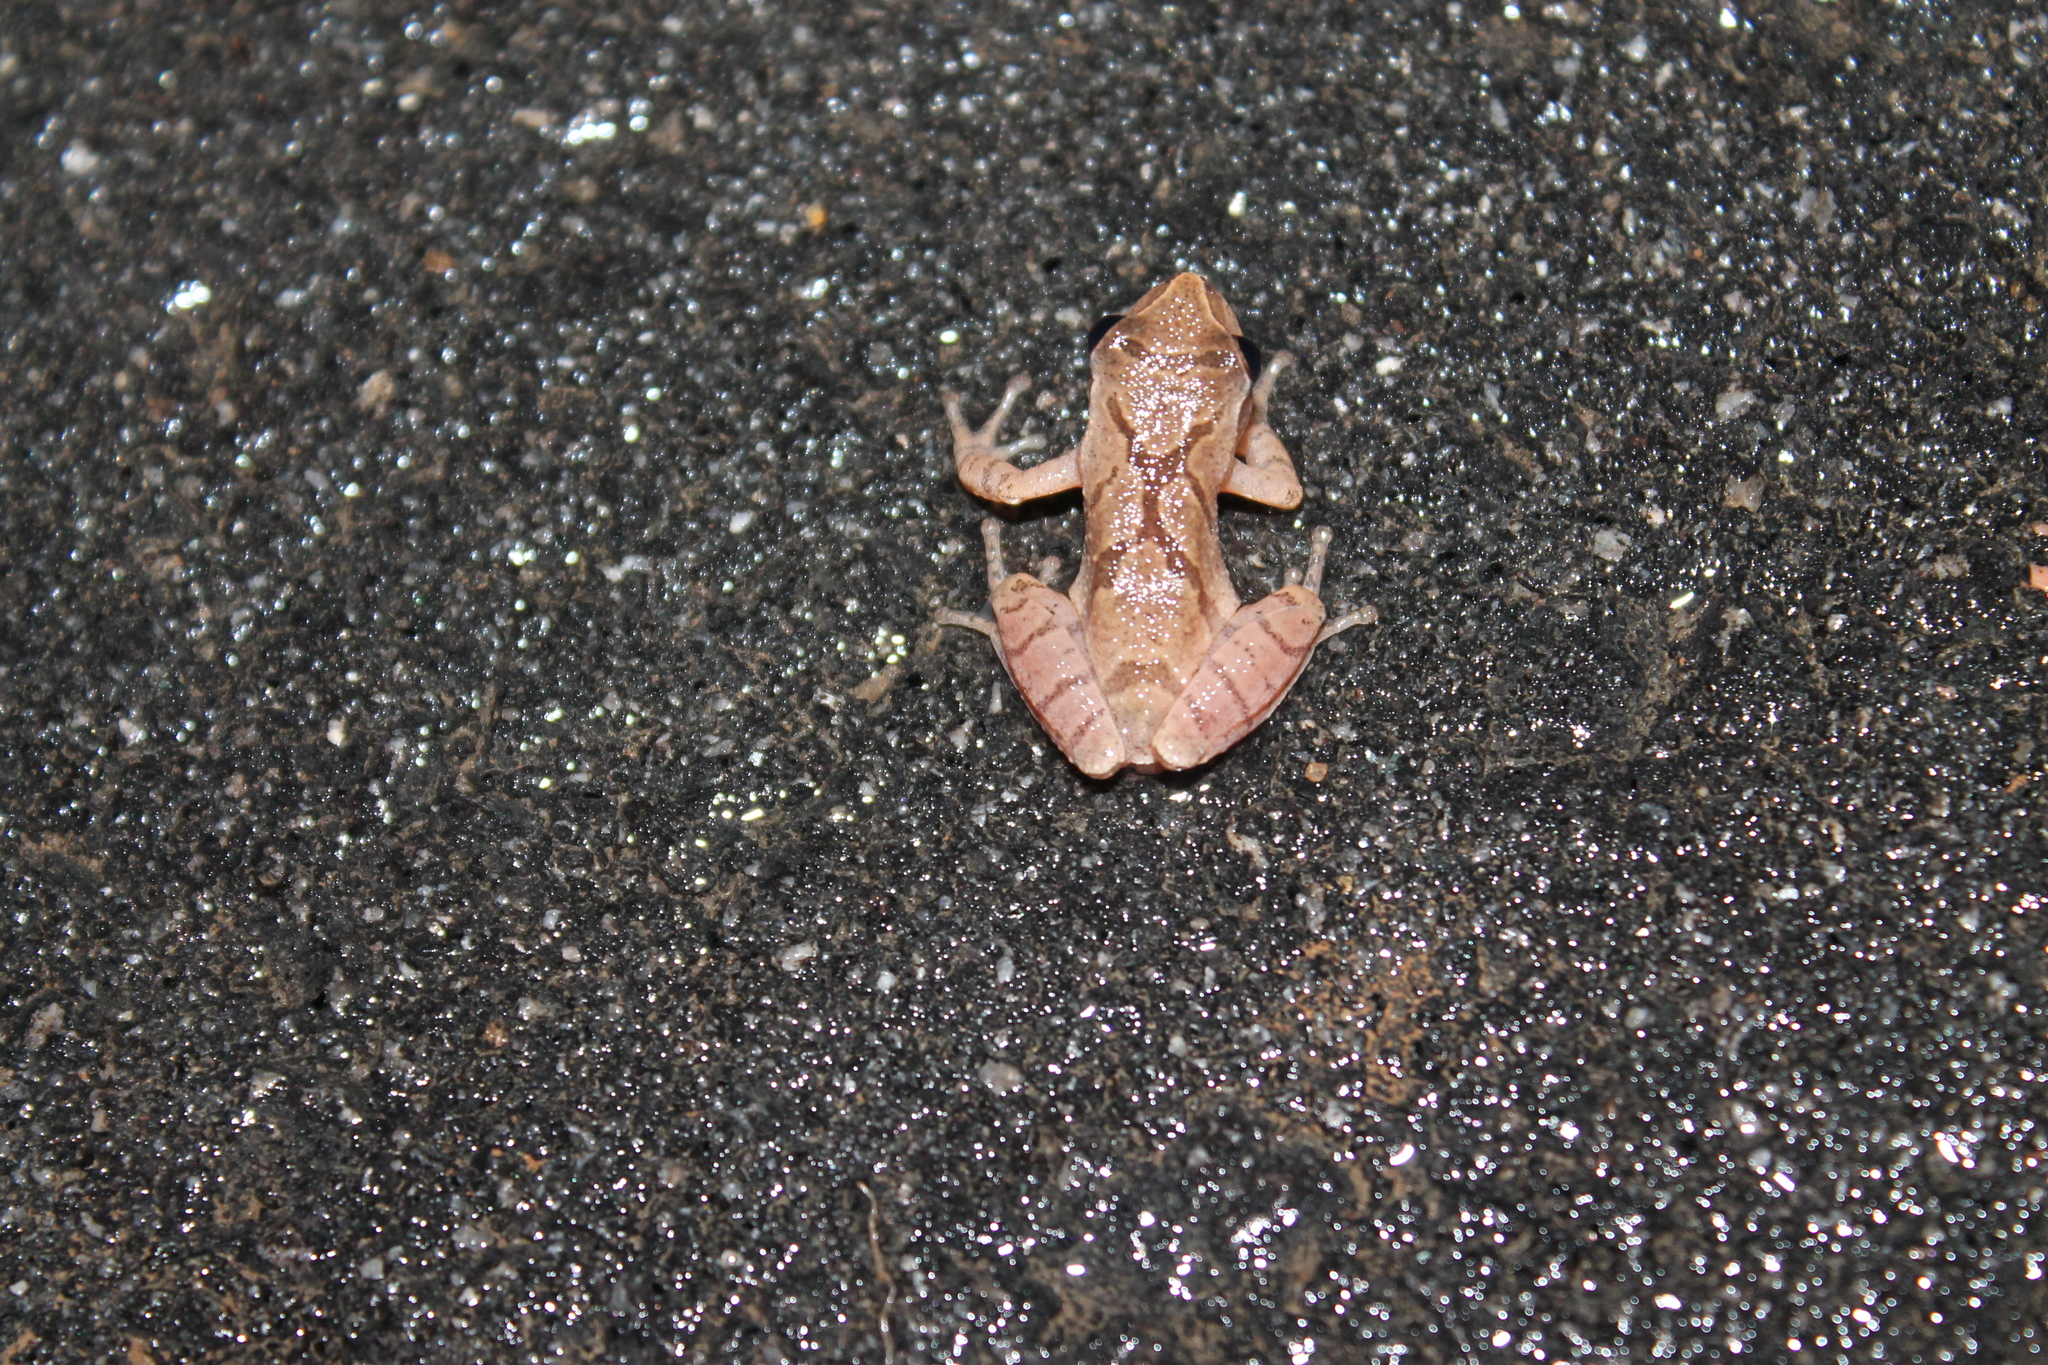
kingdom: Animalia
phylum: Chordata
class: Amphibia
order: Anura
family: Hylidae
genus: Pseudacris
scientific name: Pseudacris crucifer
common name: Spring peeper
